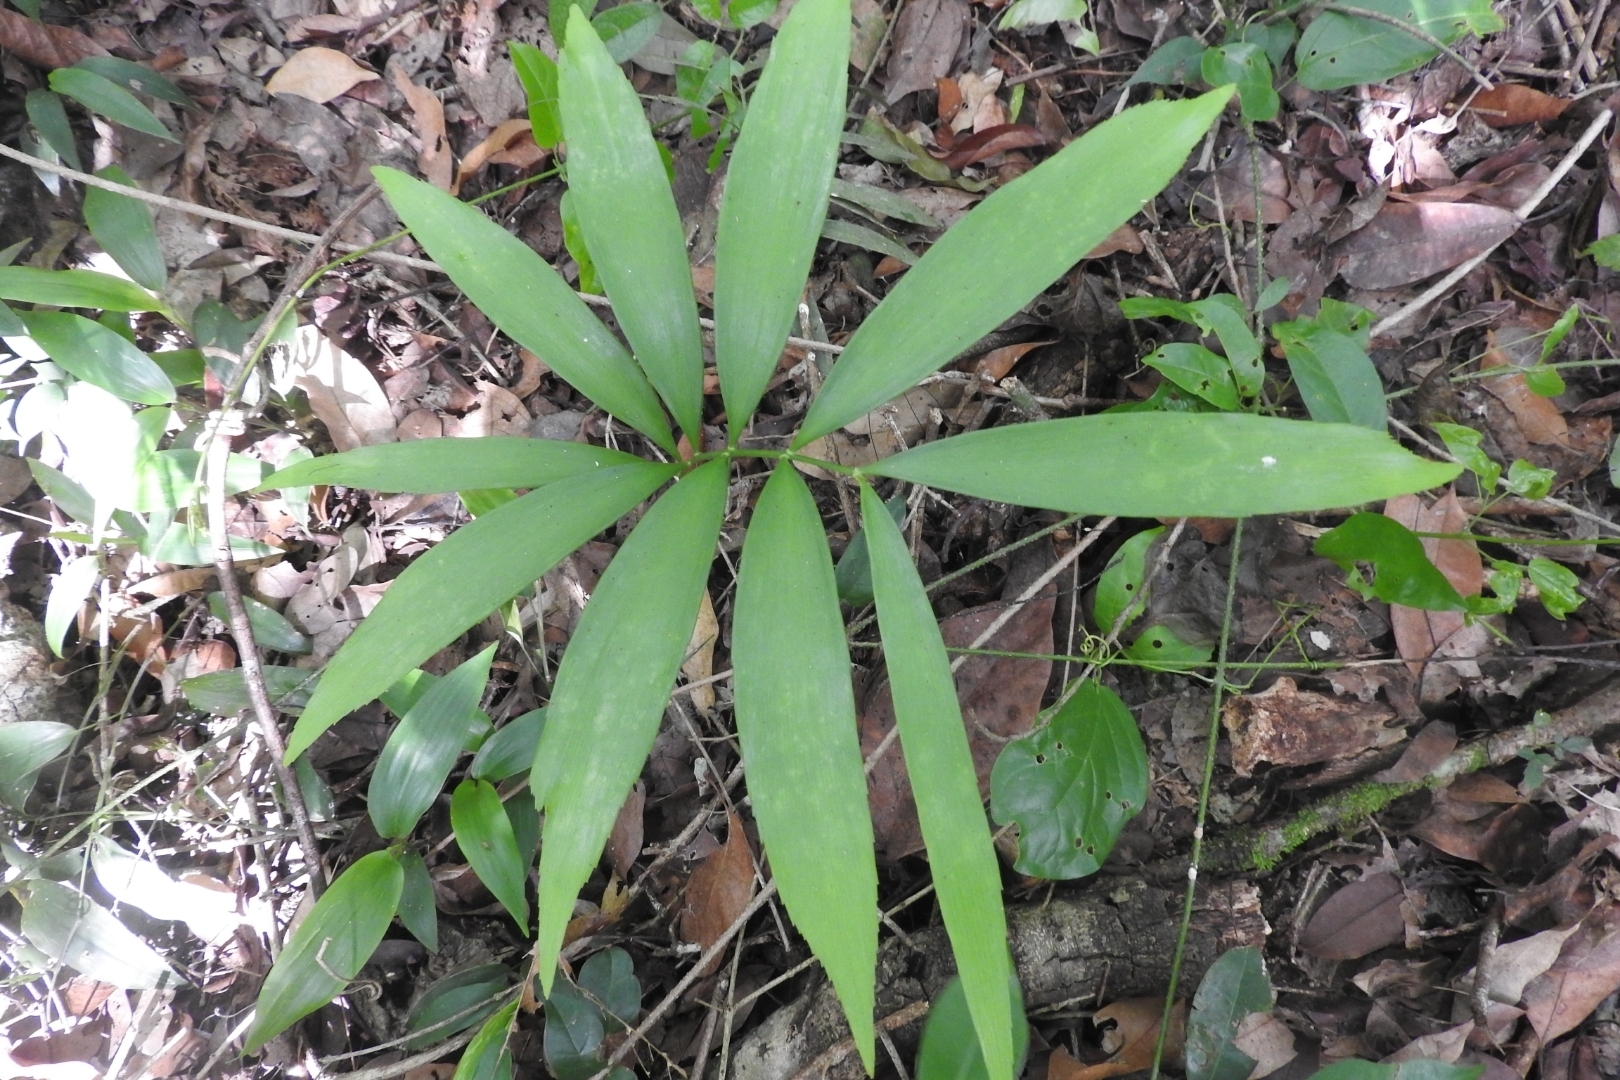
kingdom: Plantae
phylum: Tracheophyta
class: Cycadopsida
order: Cycadales
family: Zamiaceae
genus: Zamia
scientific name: Zamia prasina
